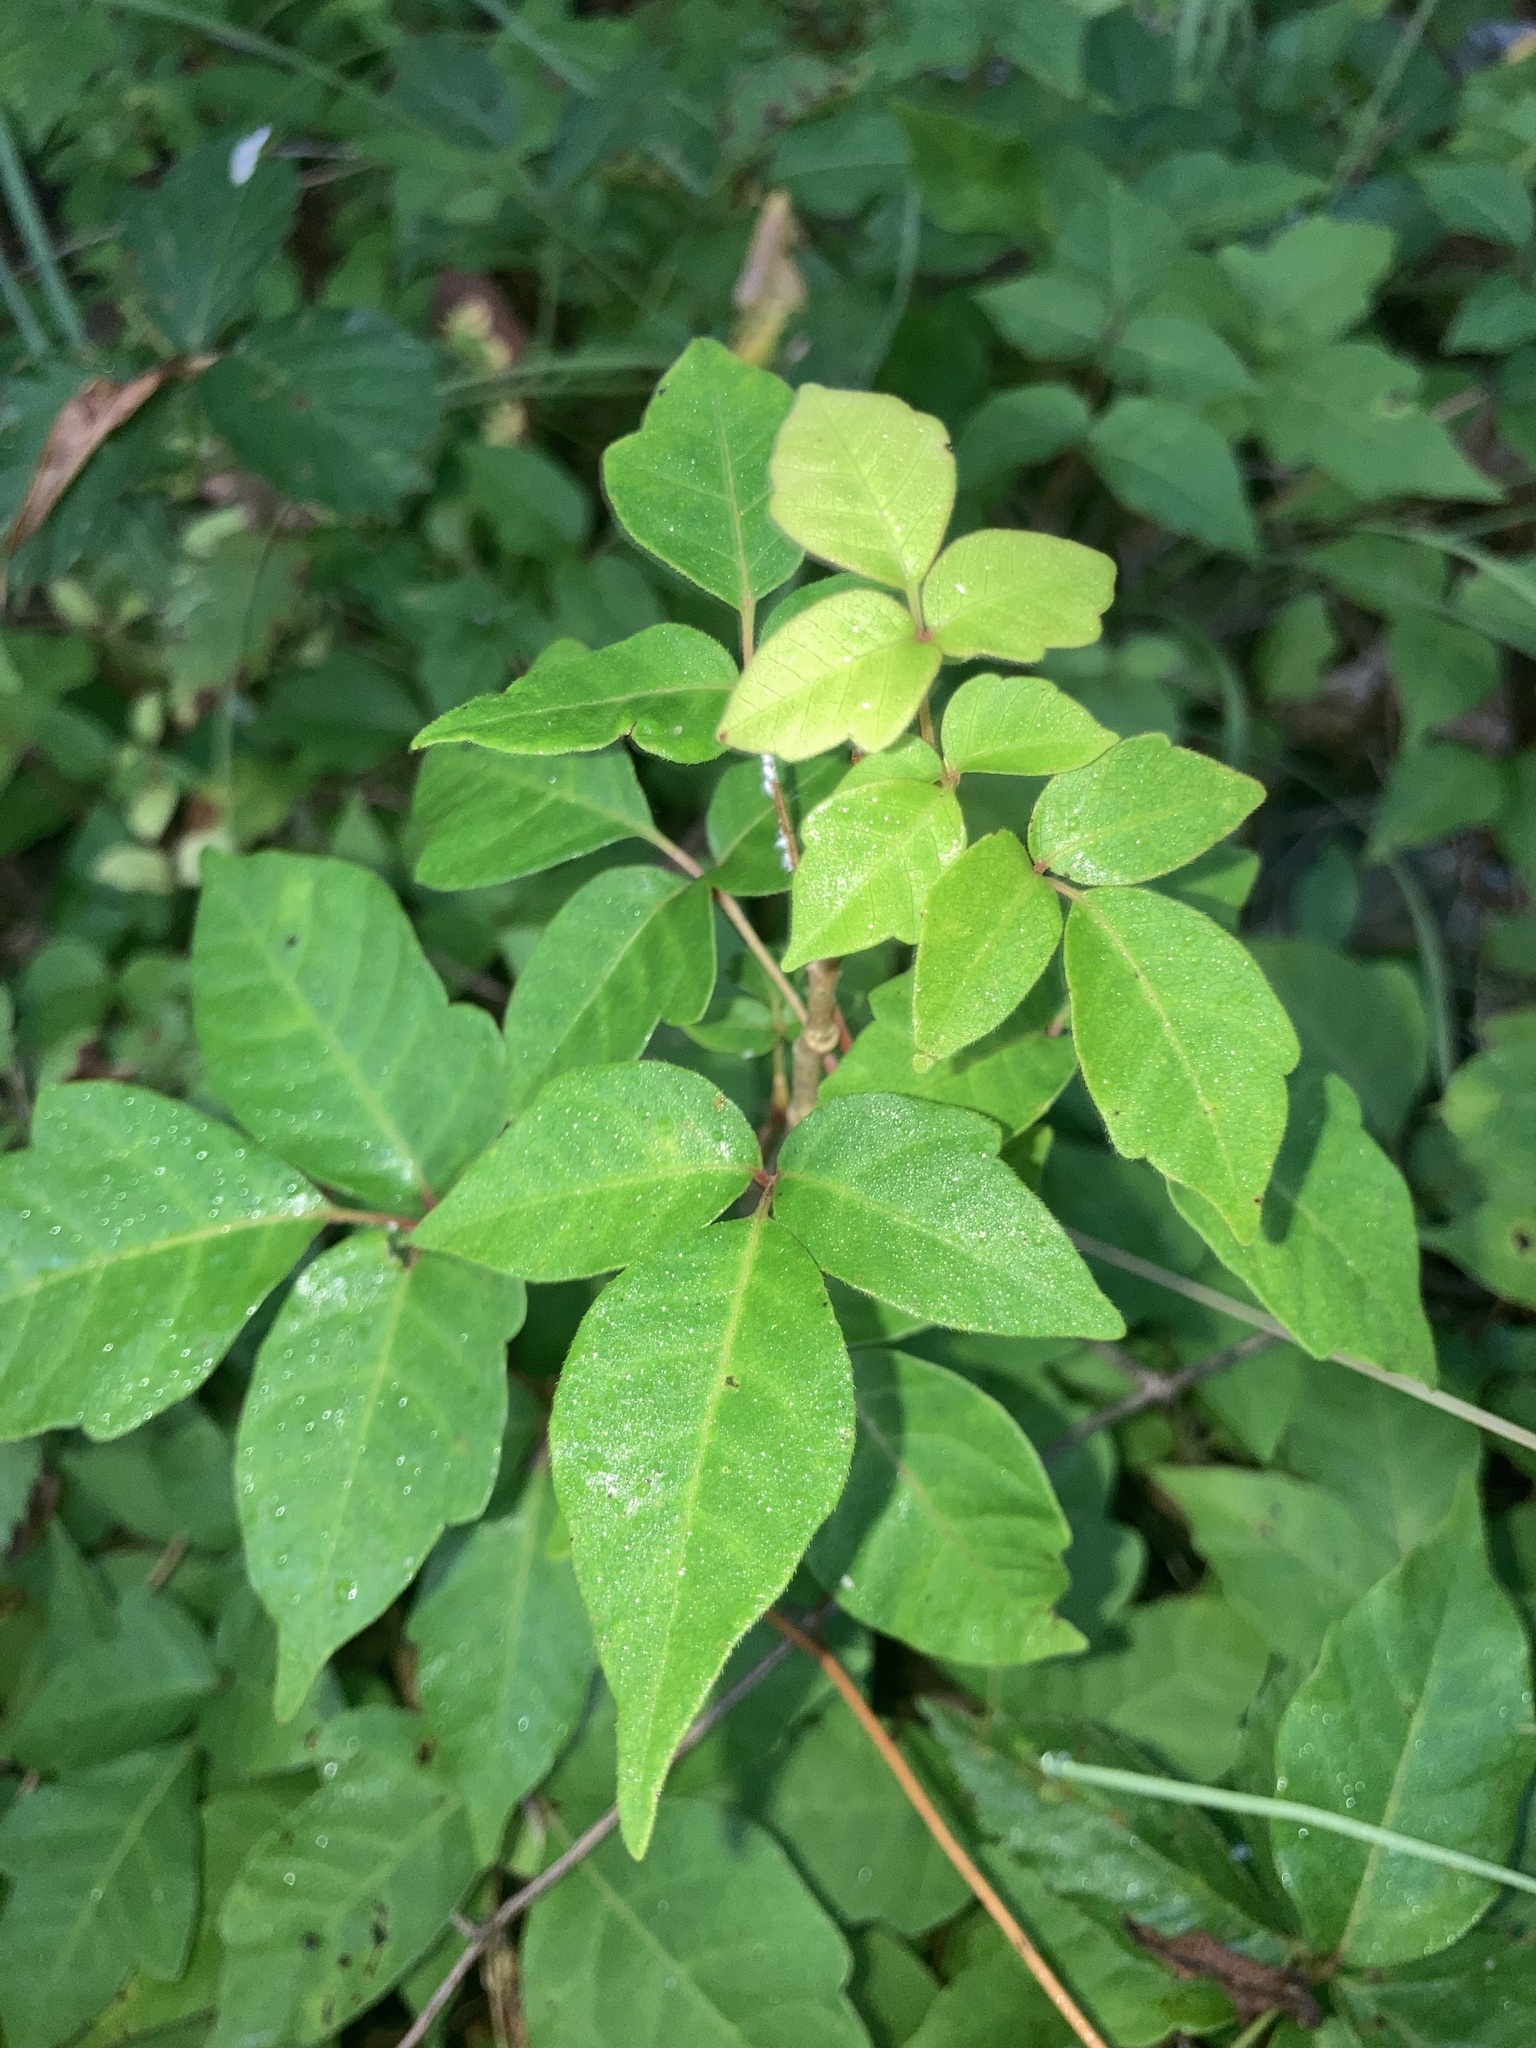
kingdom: Plantae
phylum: Tracheophyta
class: Magnoliopsida
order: Sapindales
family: Anacardiaceae
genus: Toxicodendron
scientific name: Toxicodendron radicans
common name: Poison ivy
